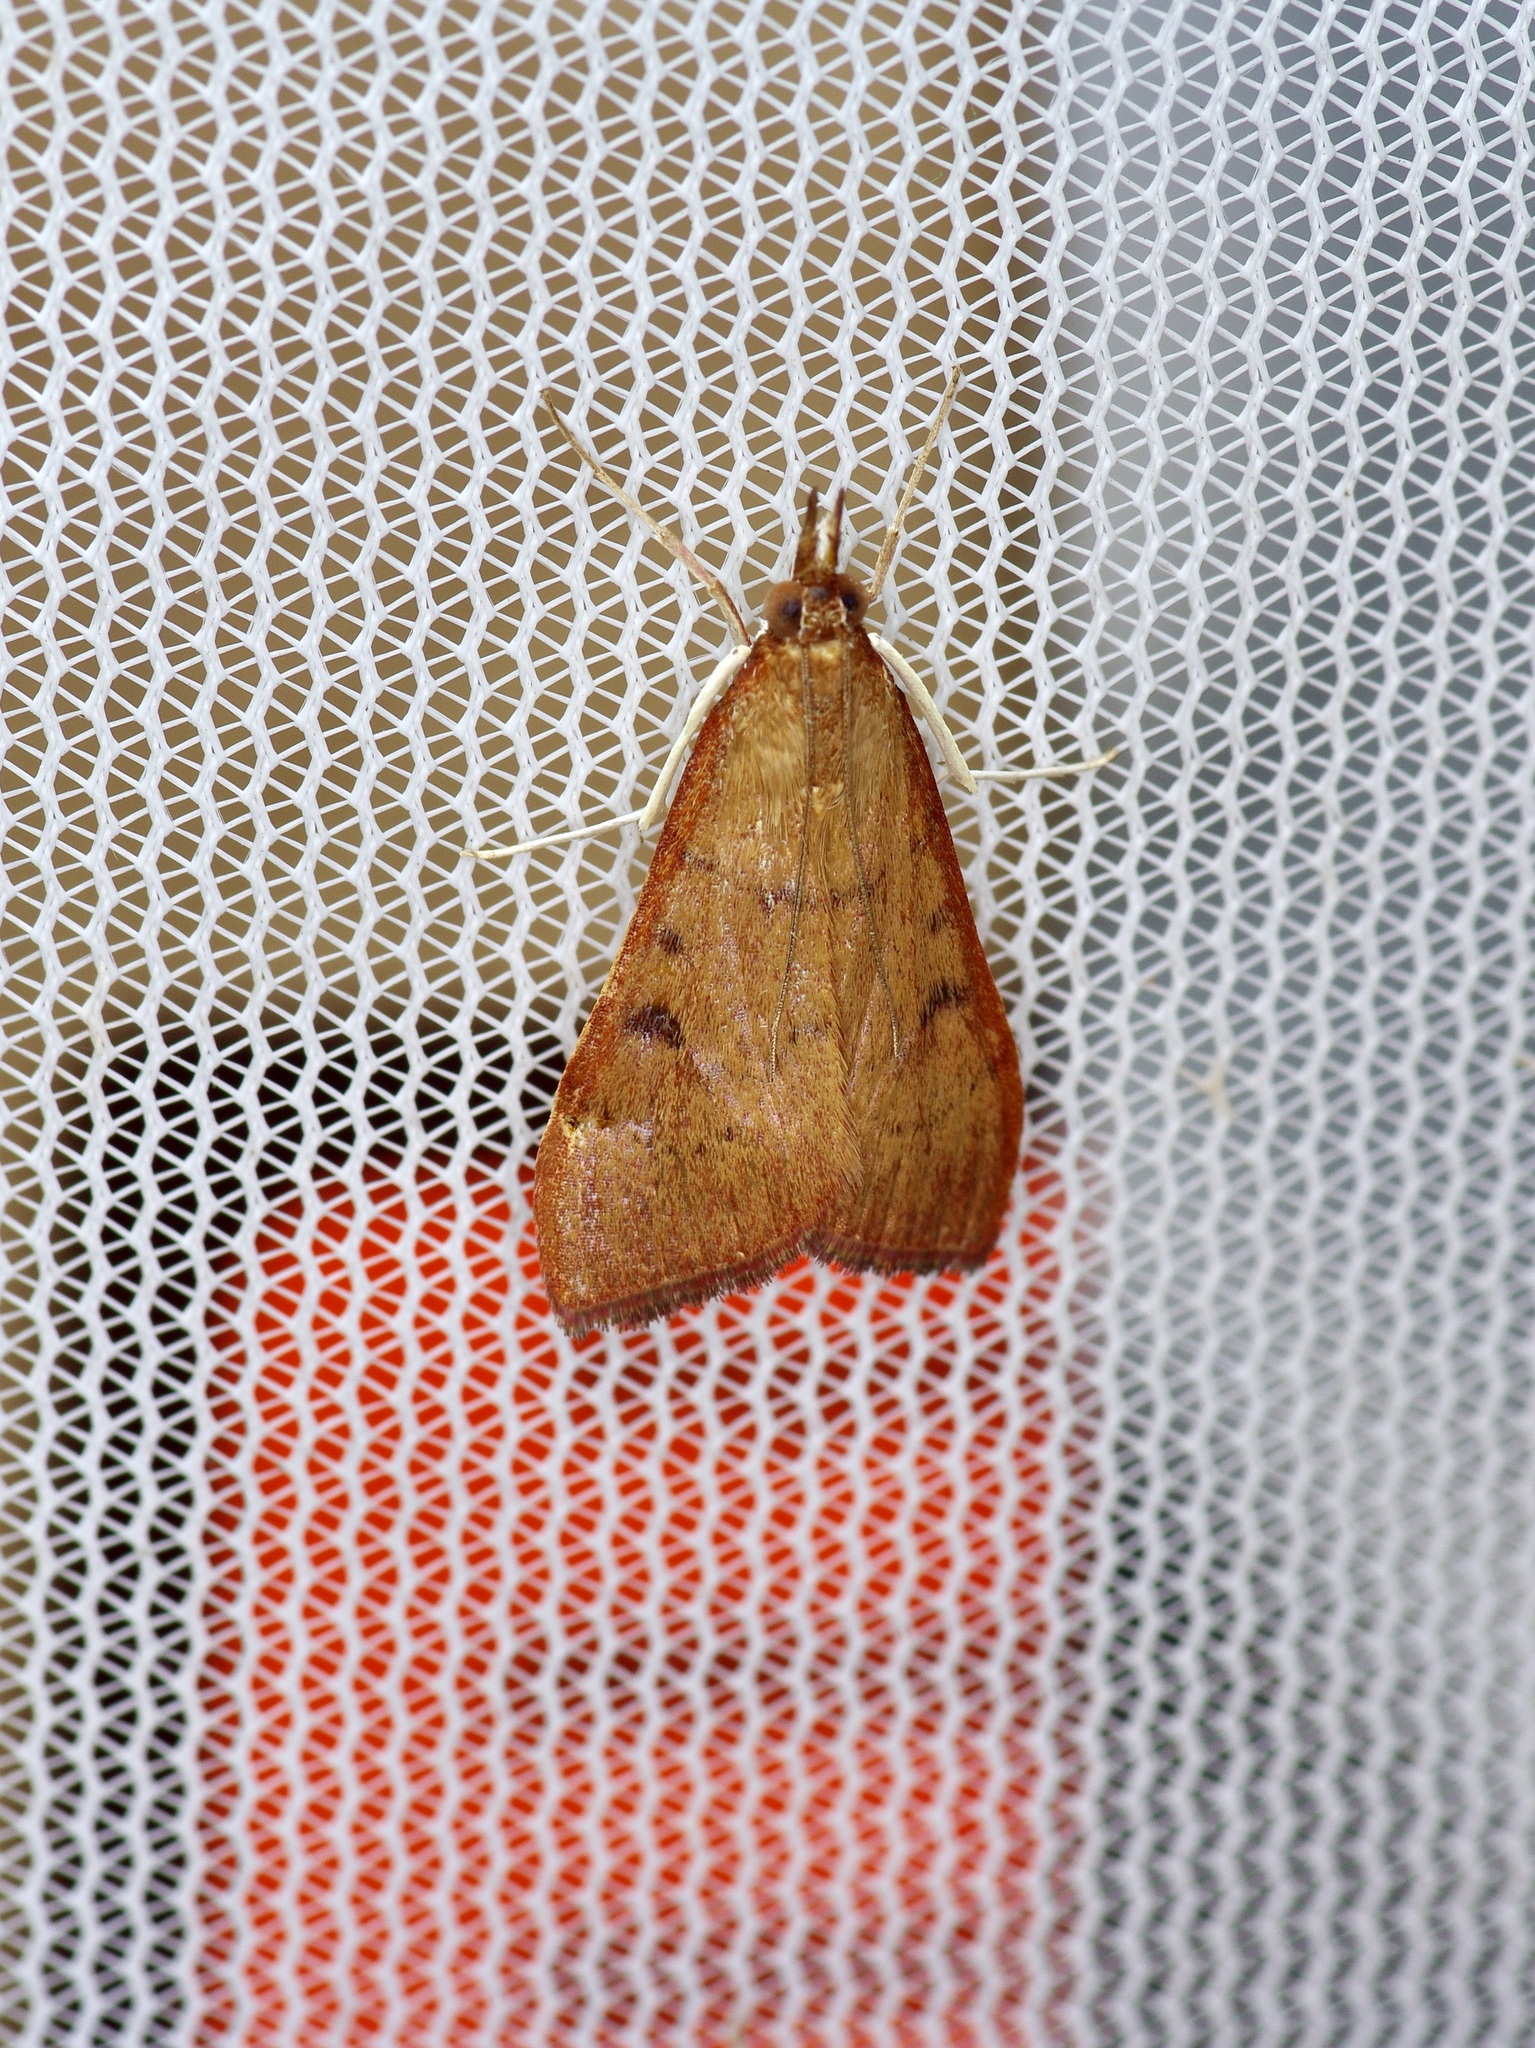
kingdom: Animalia
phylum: Arthropoda
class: Insecta
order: Lepidoptera
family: Crambidae
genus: Uresiphita
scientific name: Uresiphita reversalis
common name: Genista broom moth
